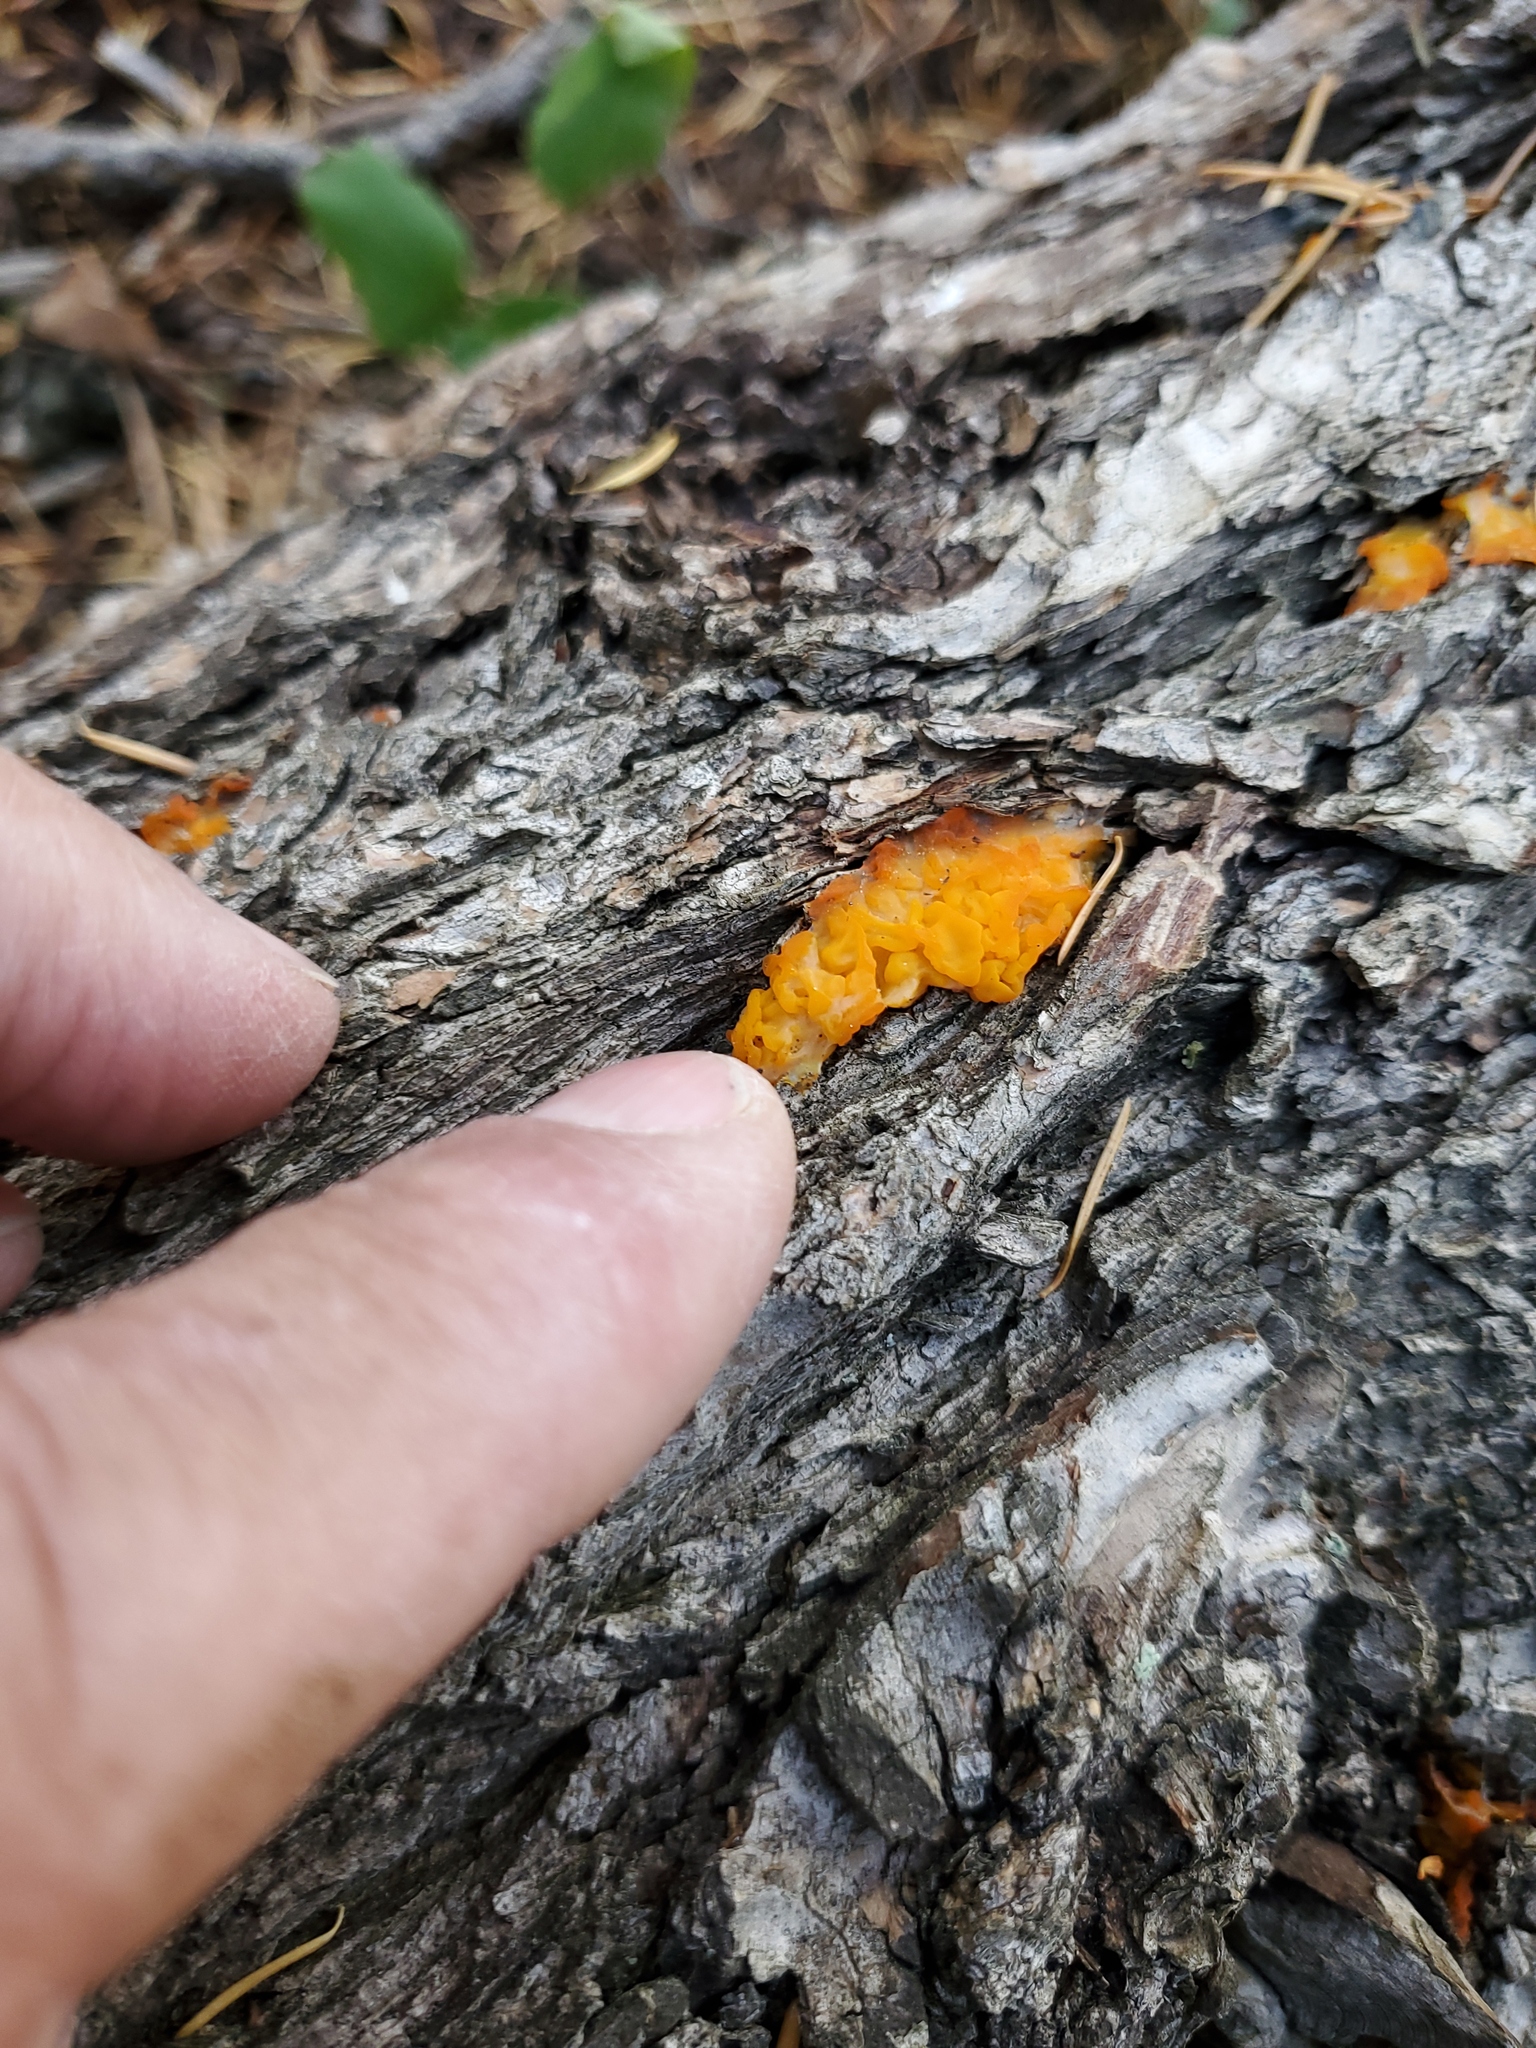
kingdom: Fungi
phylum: Basidiomycota
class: Dacrymycetes
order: Dacrymycetales
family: Dacrymycetaceae
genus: Dacrymyces
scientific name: Dacrymyces chrysospermus
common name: Orange jelly spot
